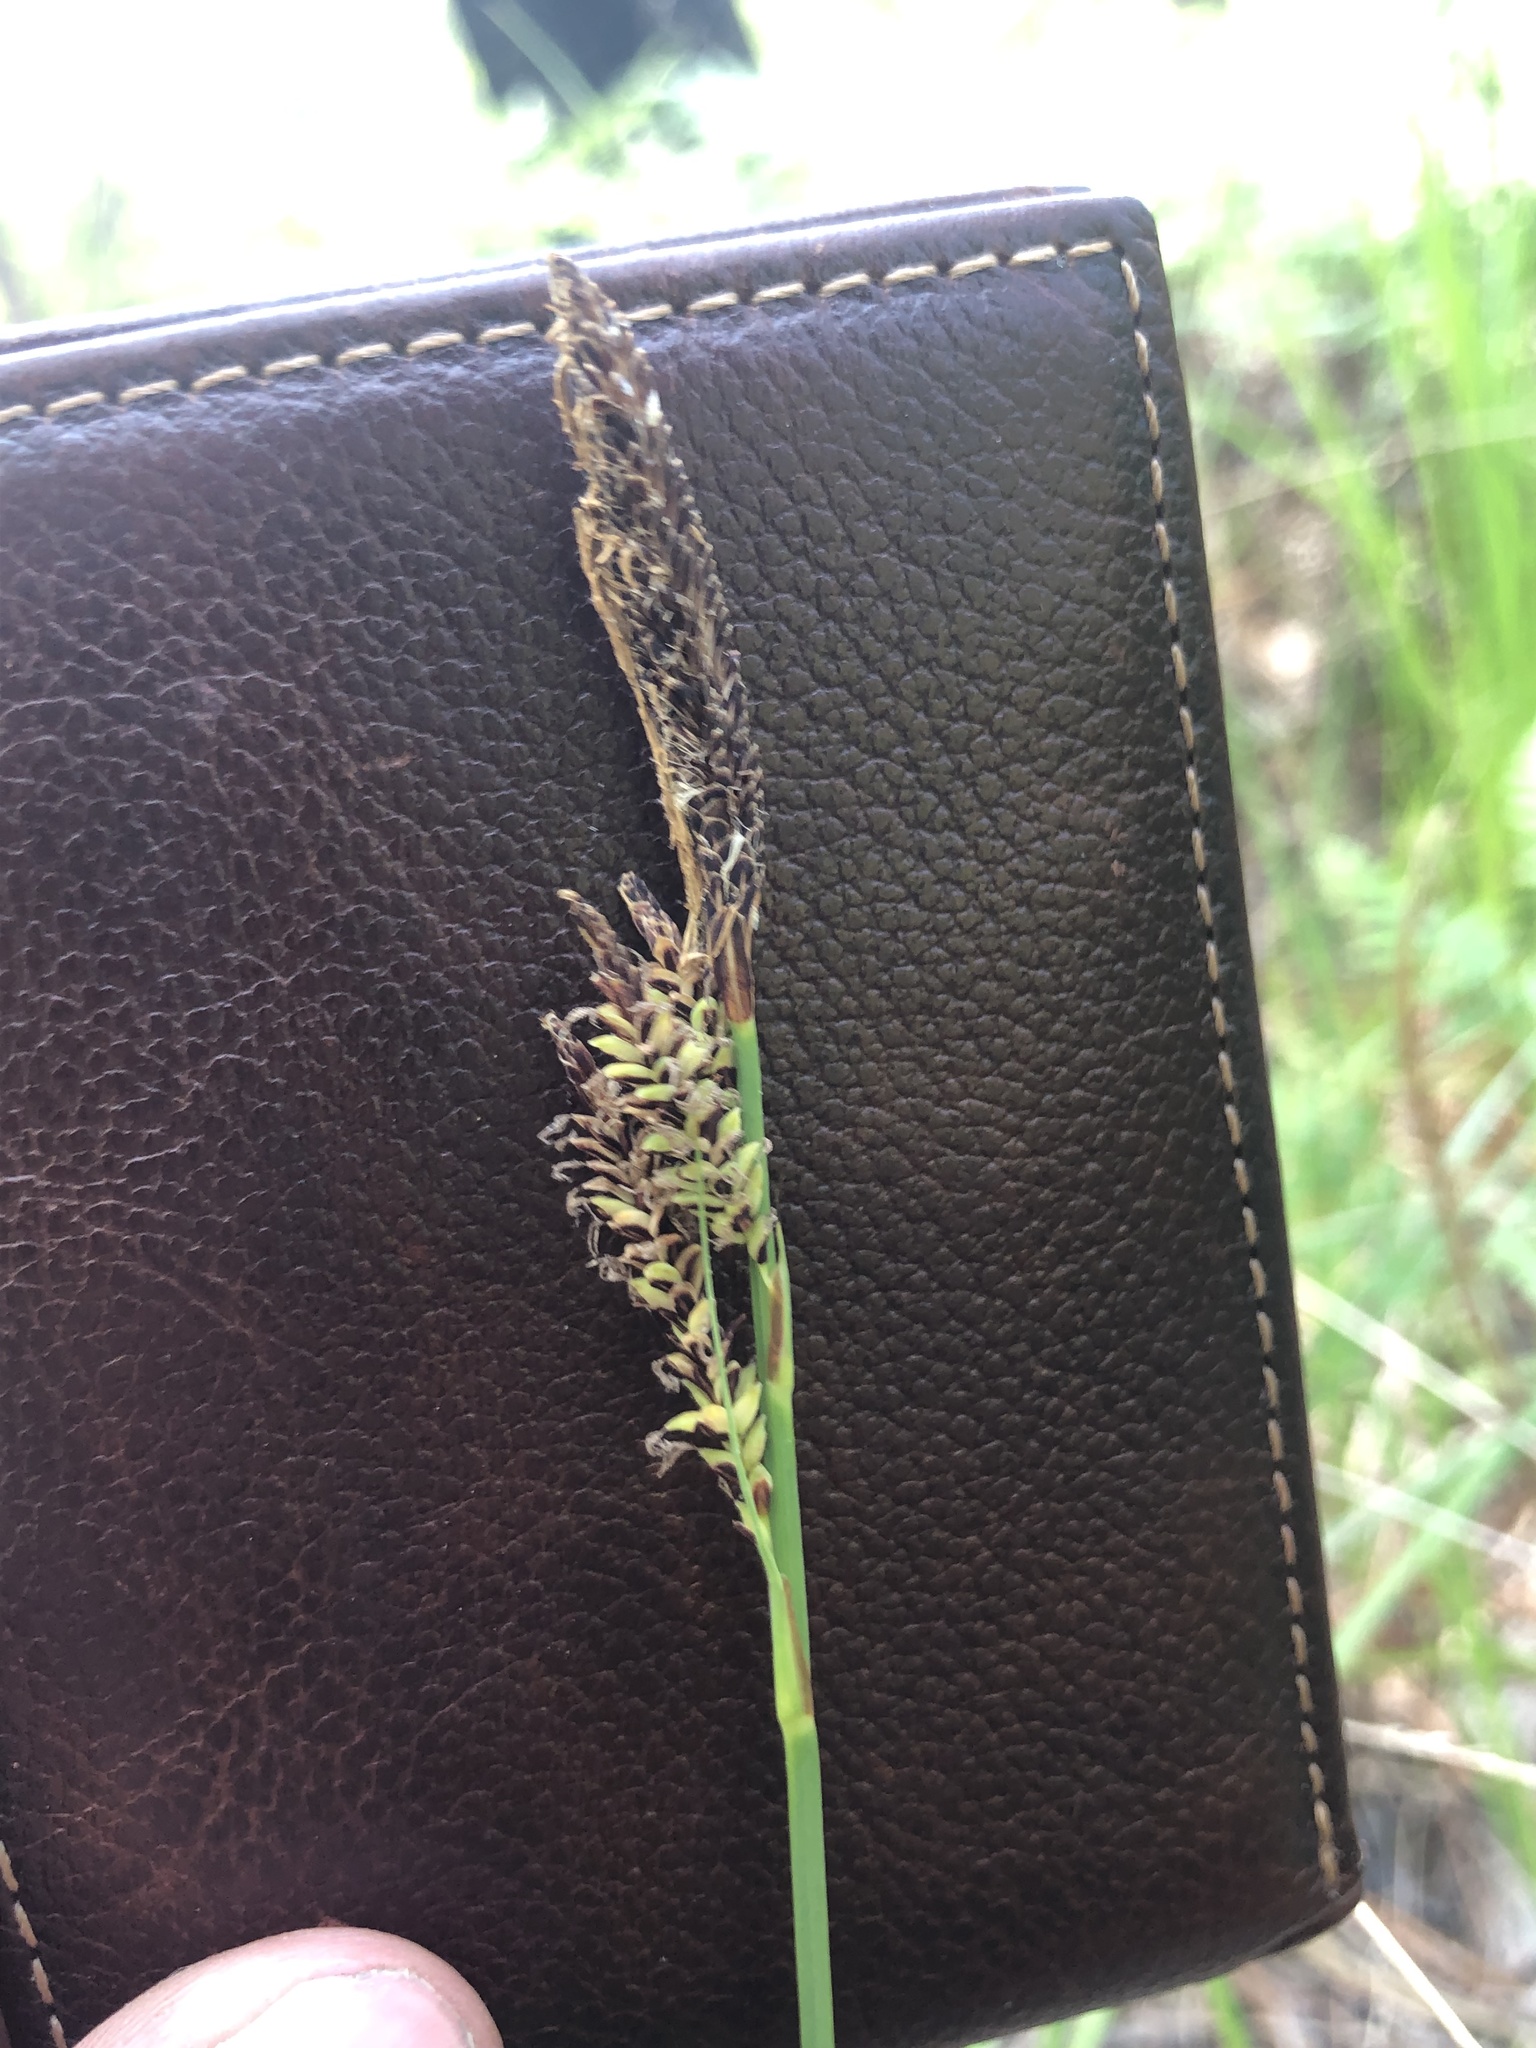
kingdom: Plantae
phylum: Tracheophyta
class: Liliopsida
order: Poales
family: Cyperaceae
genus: Carex
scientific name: Carex barrattii
